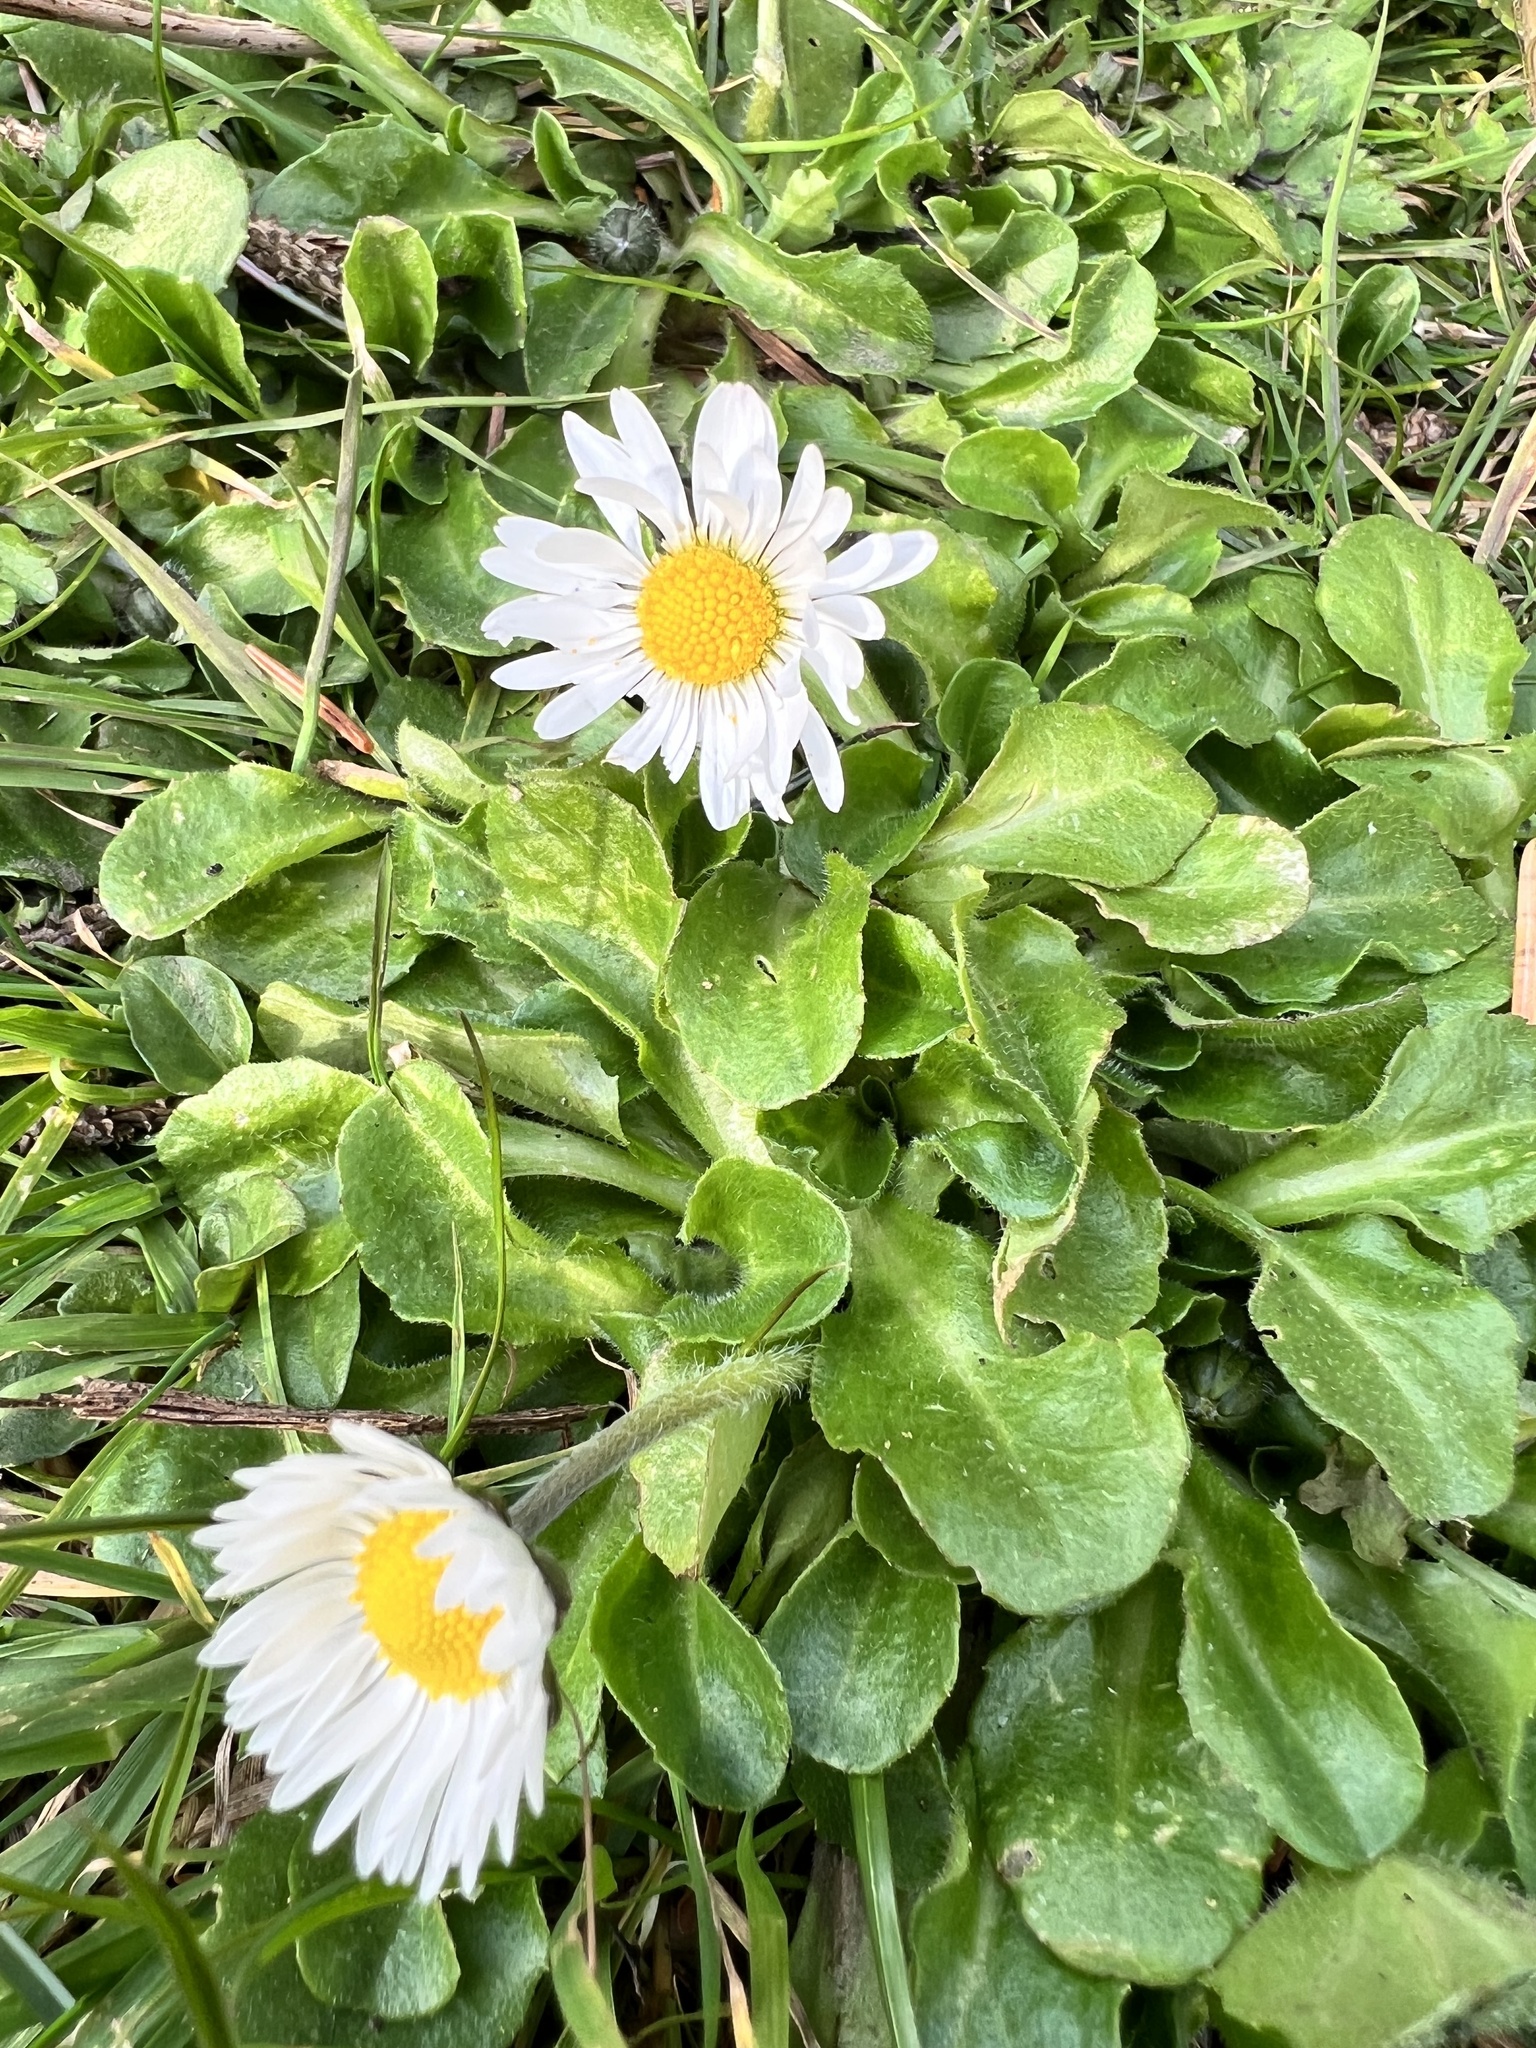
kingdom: Plantae
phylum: Tracheophyta
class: Magnoliopsida
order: Asterales
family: Asteraceae
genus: Bellis
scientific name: Bellis perennis
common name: Lawndaisy
